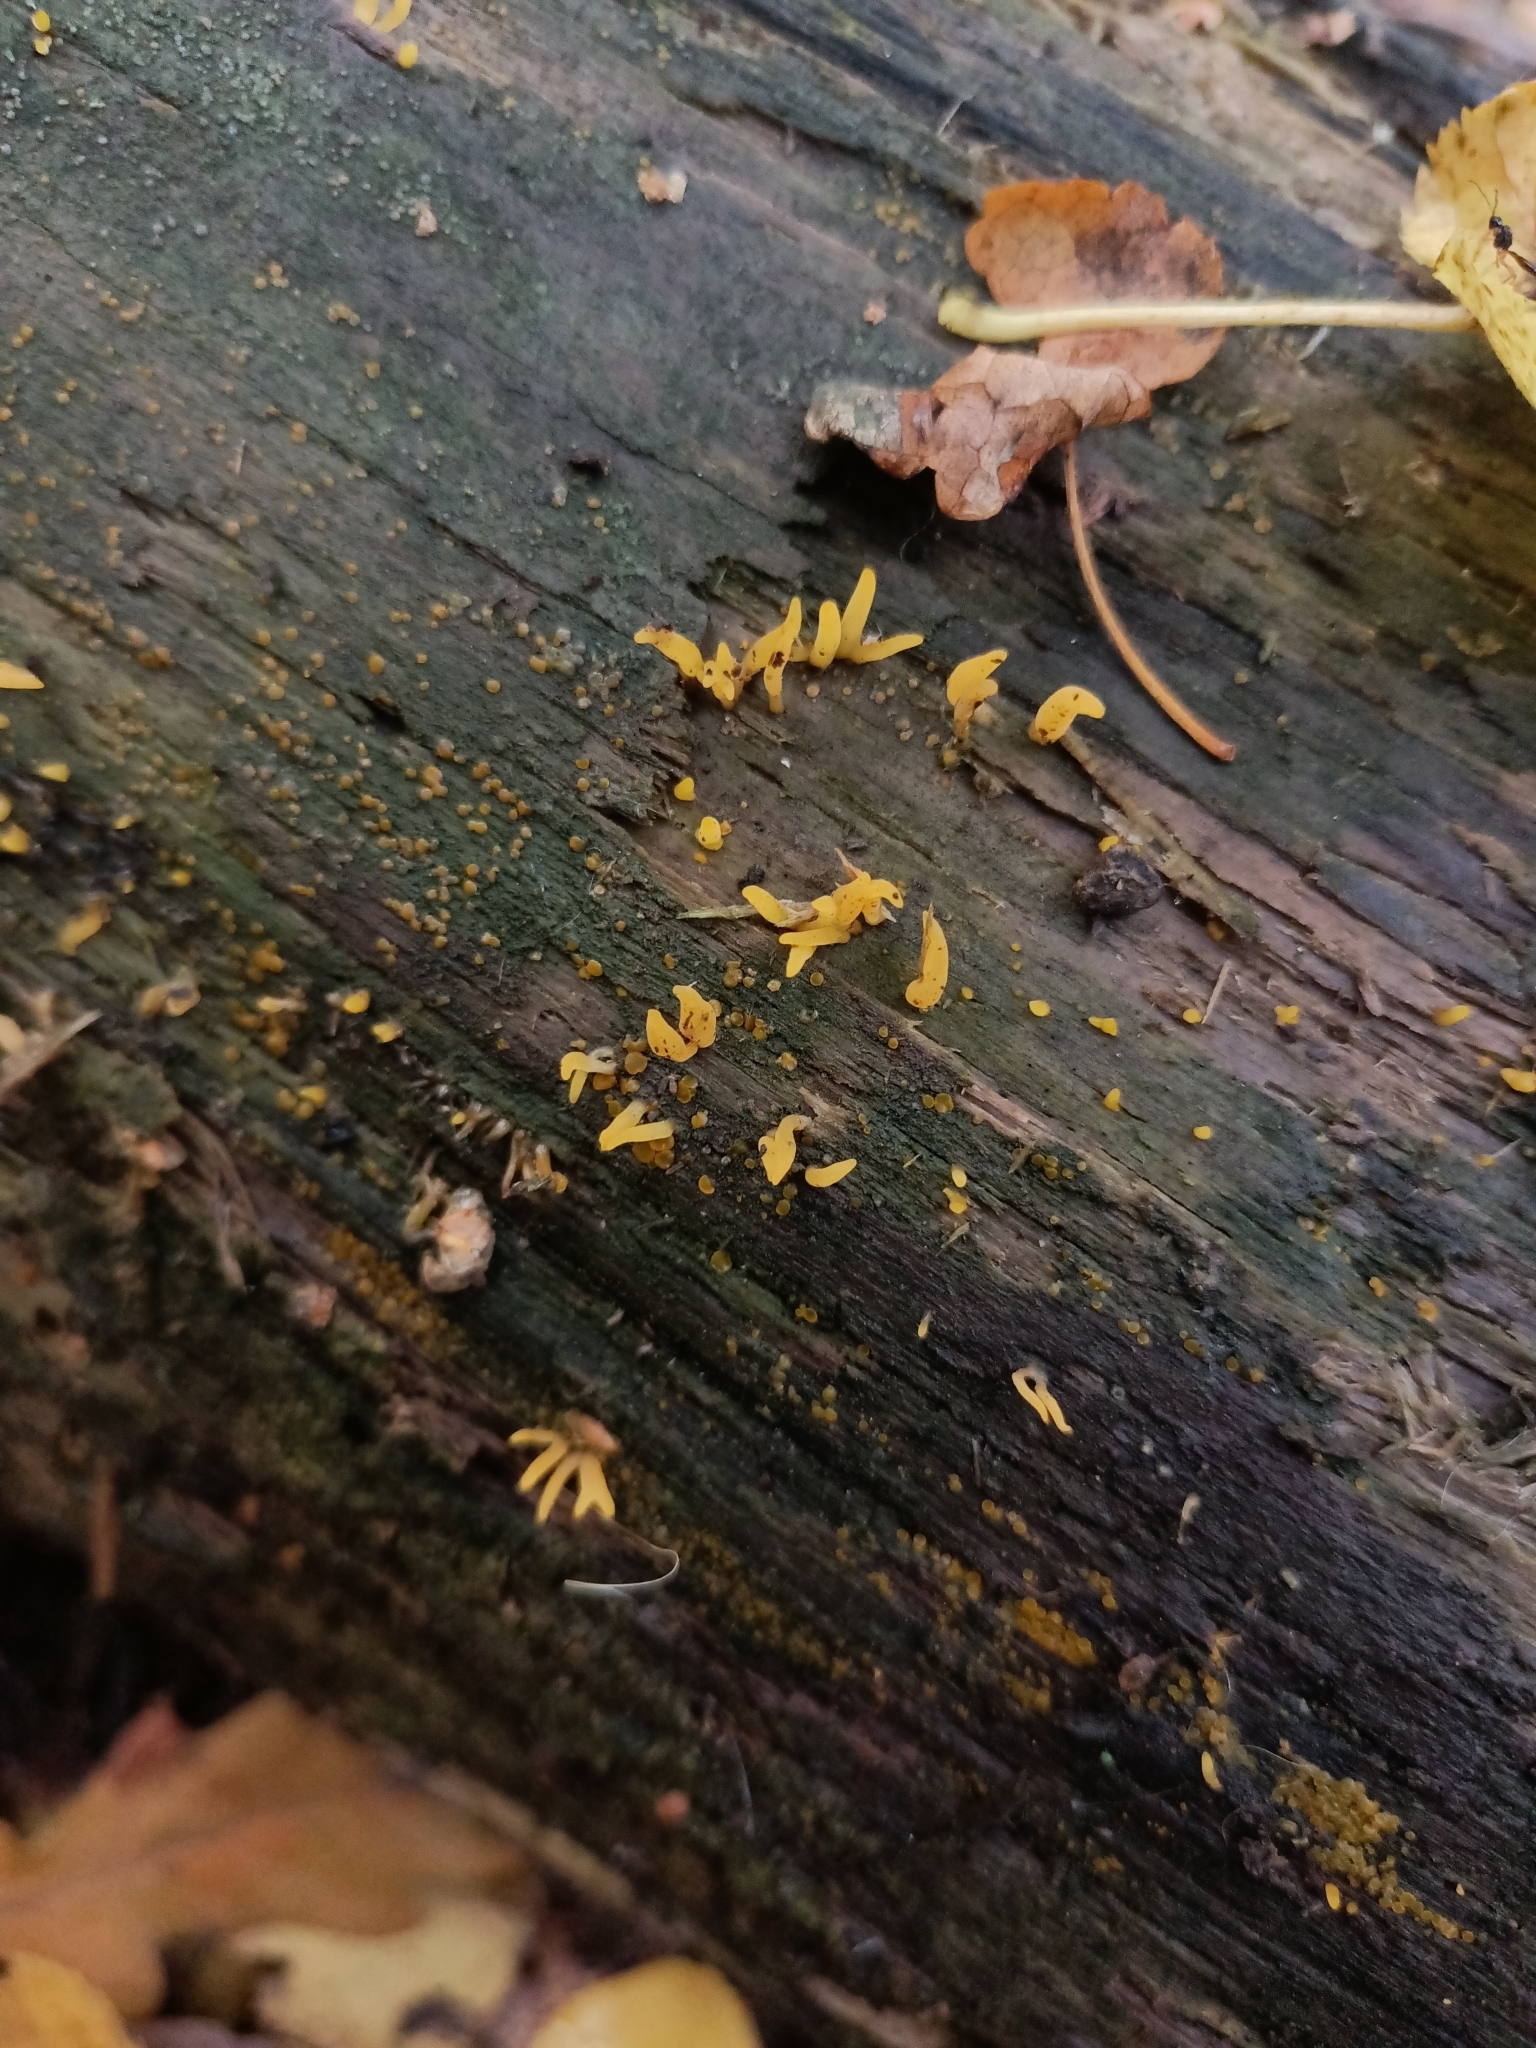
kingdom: Fungi
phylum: Basidiomycota
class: Dacrymycetes
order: Dacrymycetales
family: Dacrymycetaceae
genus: Calocera
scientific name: Calocera cornea
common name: Small stagshorn
